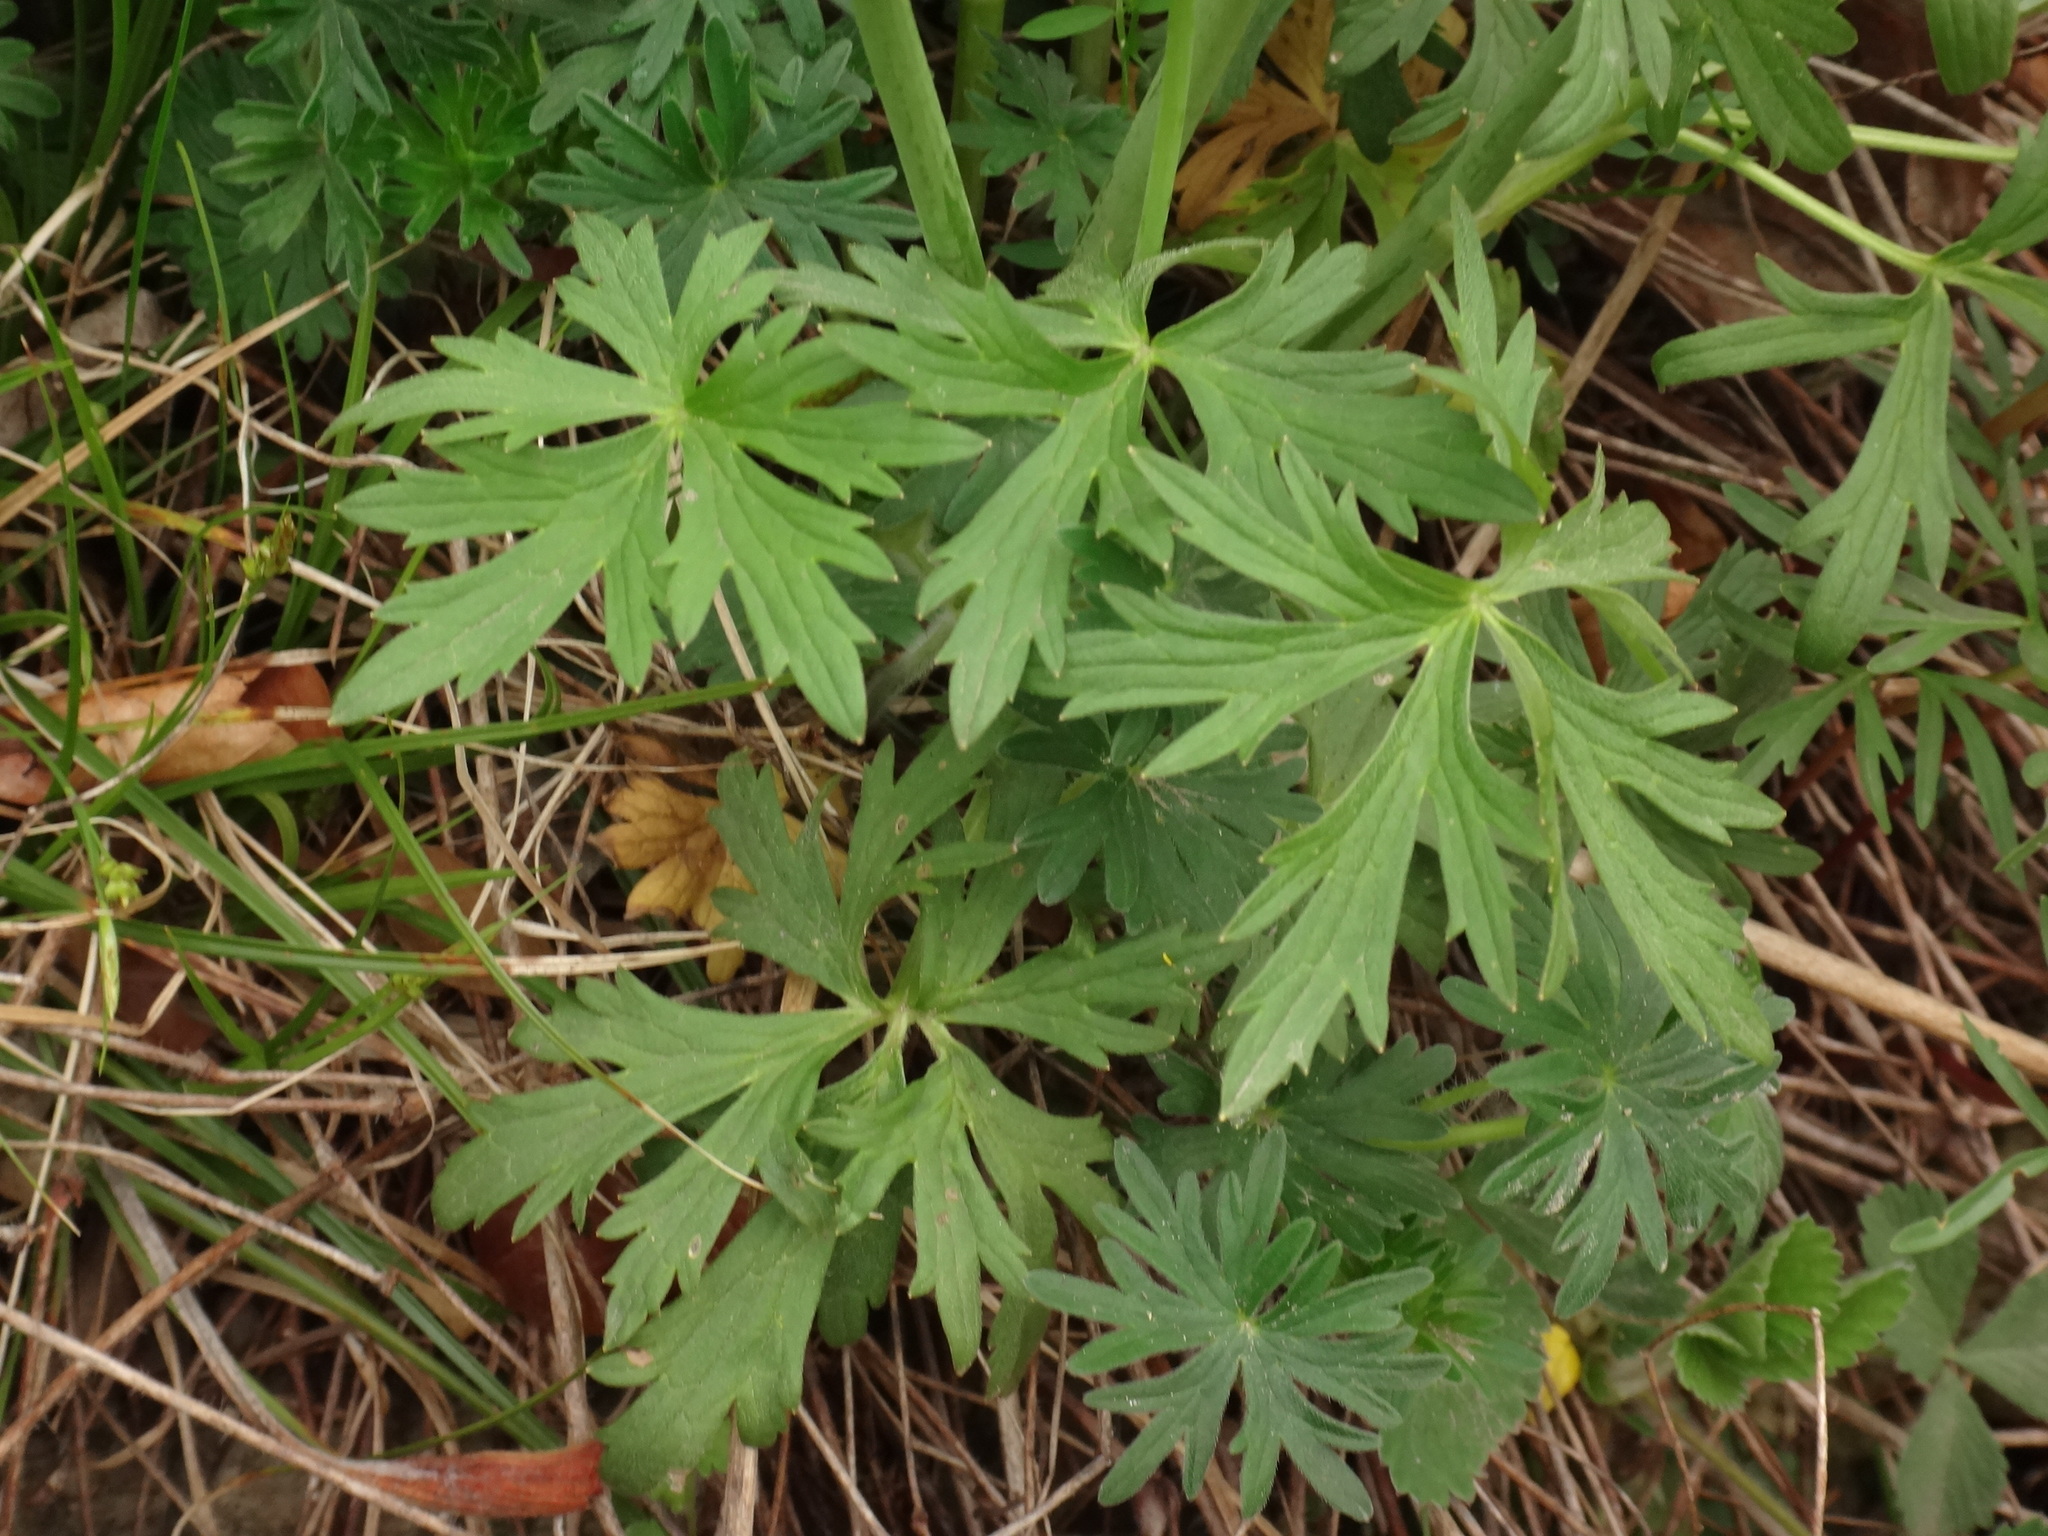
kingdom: Plantae
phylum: Tracheophyta
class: Magnoliopsida
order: Ranunculales
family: Ranunculaceae
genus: Ranunculus
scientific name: Ranunculus acris
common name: Meadow buttercup
